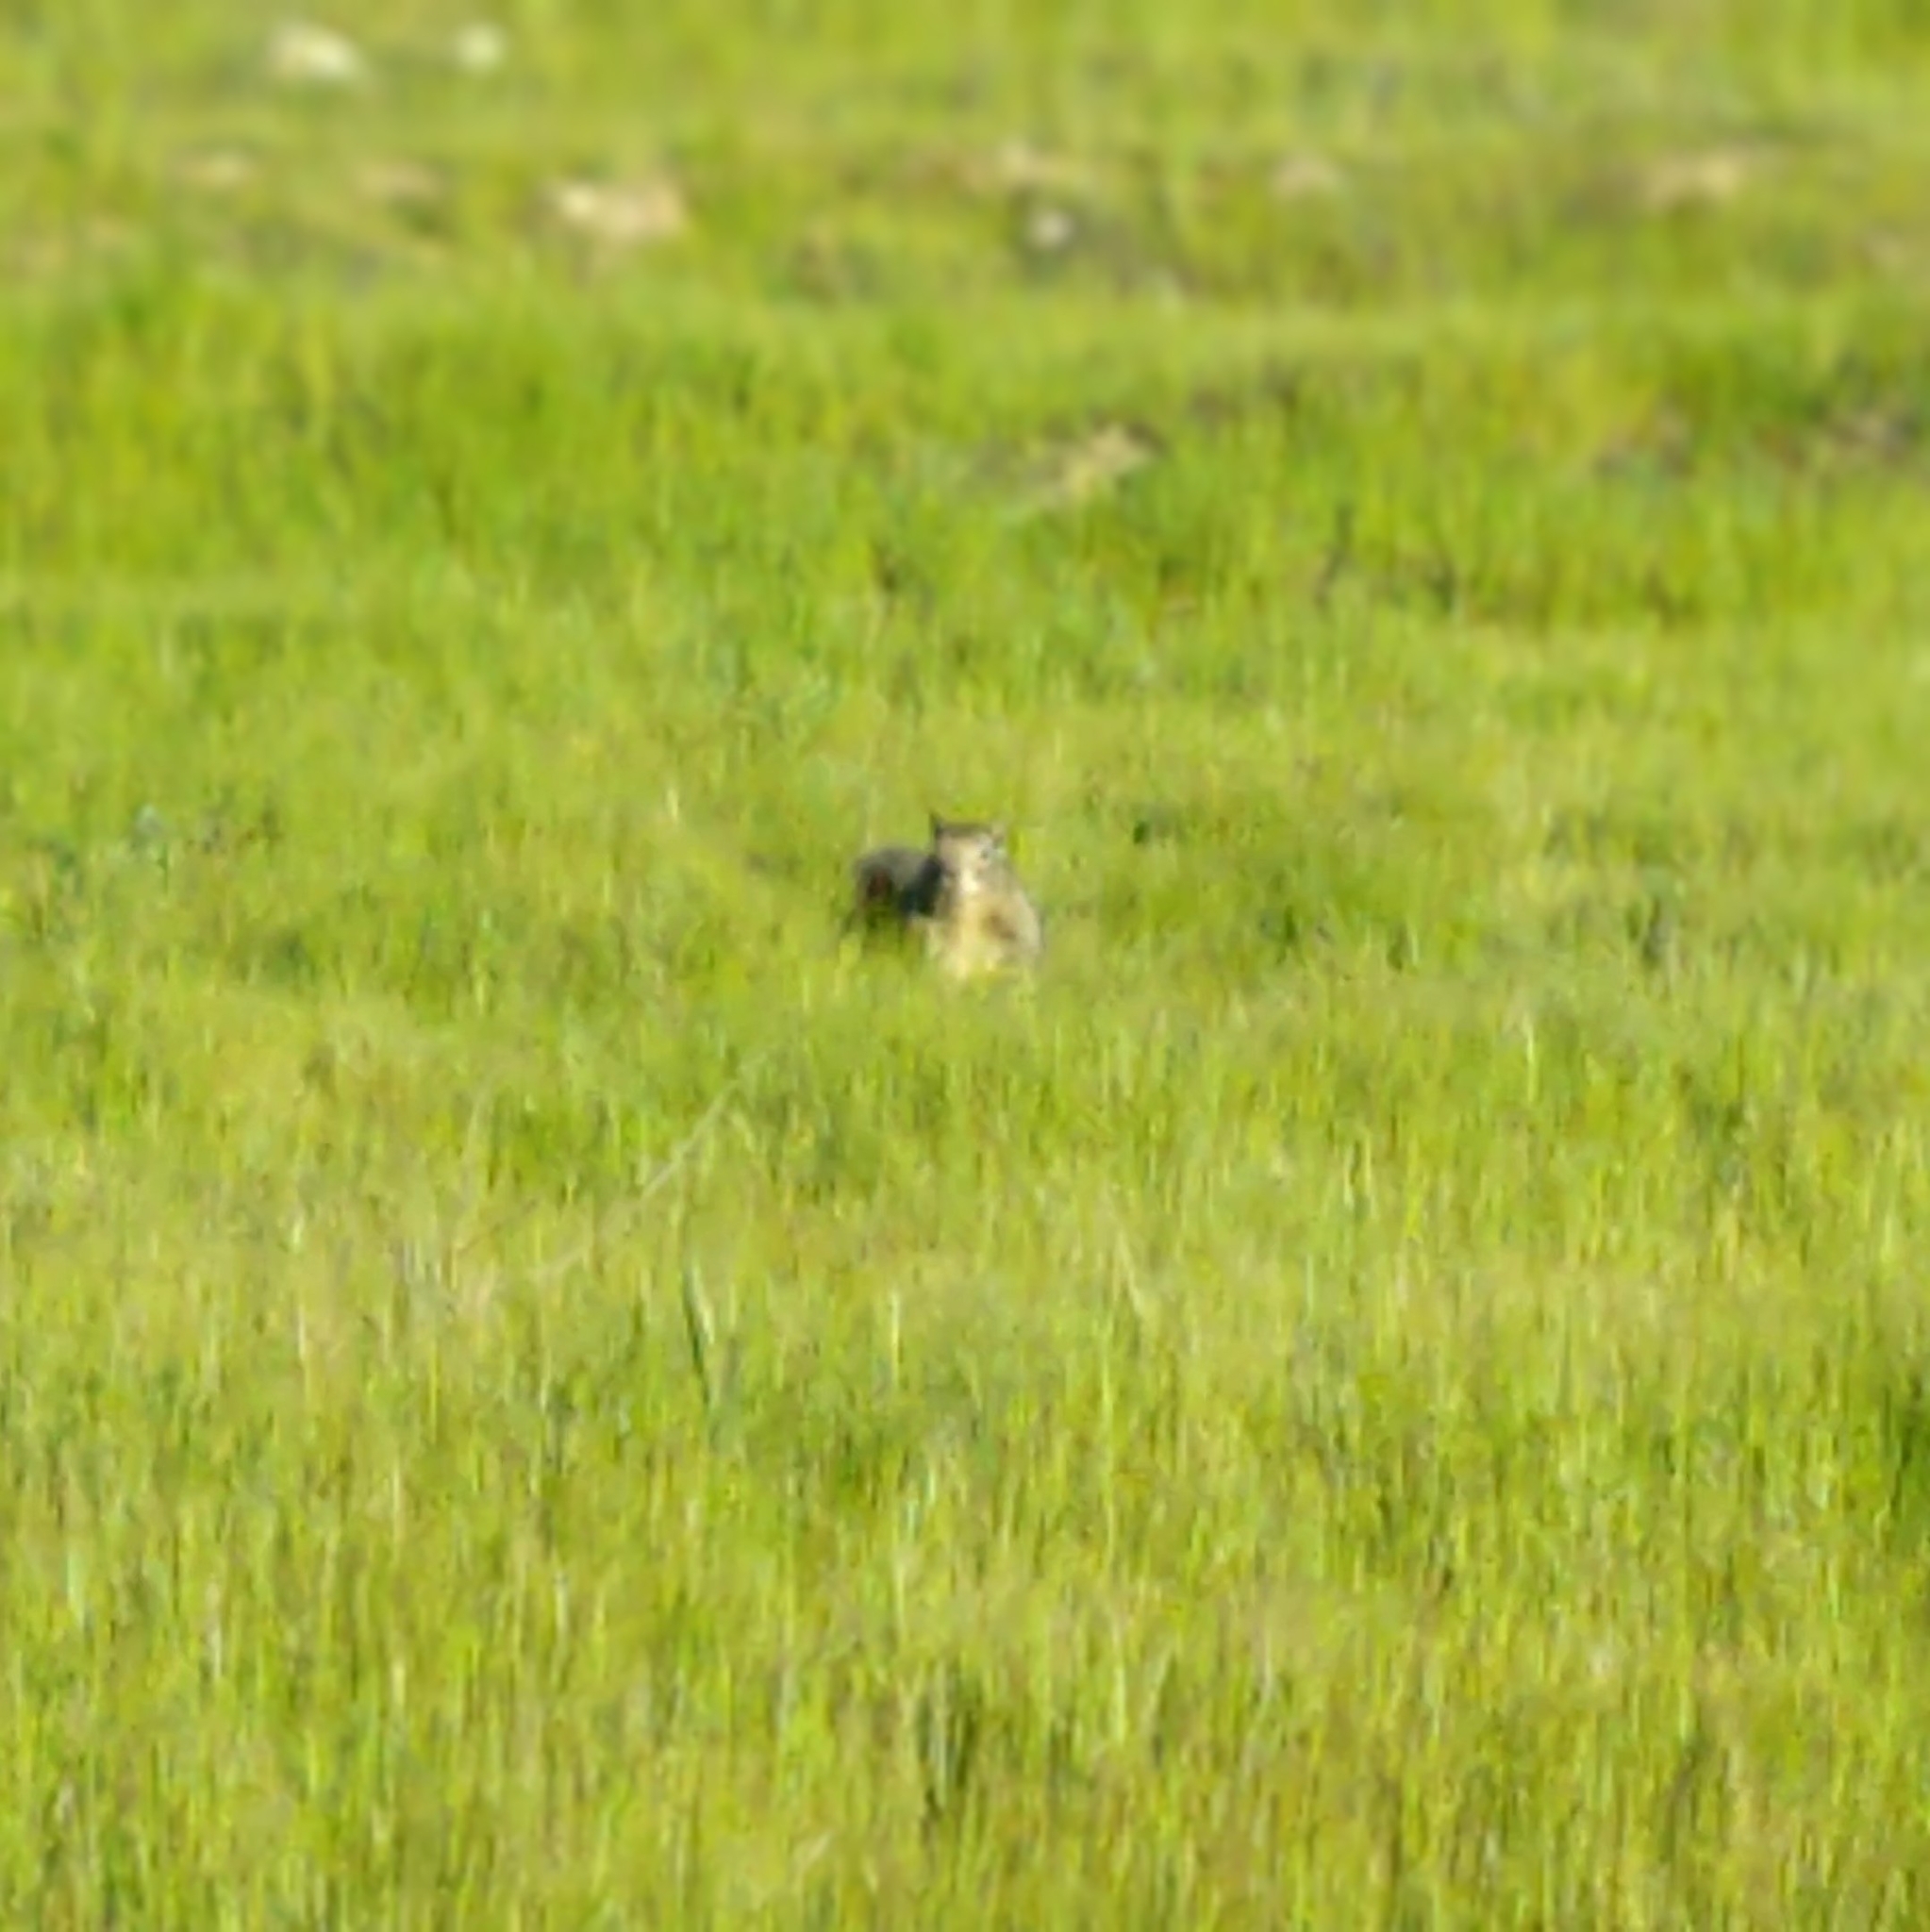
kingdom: Animalia
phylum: Chordata
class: Mammalia
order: Rodentia
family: Sciuridae
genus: Otospermophilus
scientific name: Otospermophilus beecheyi
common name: California ground squirrel
